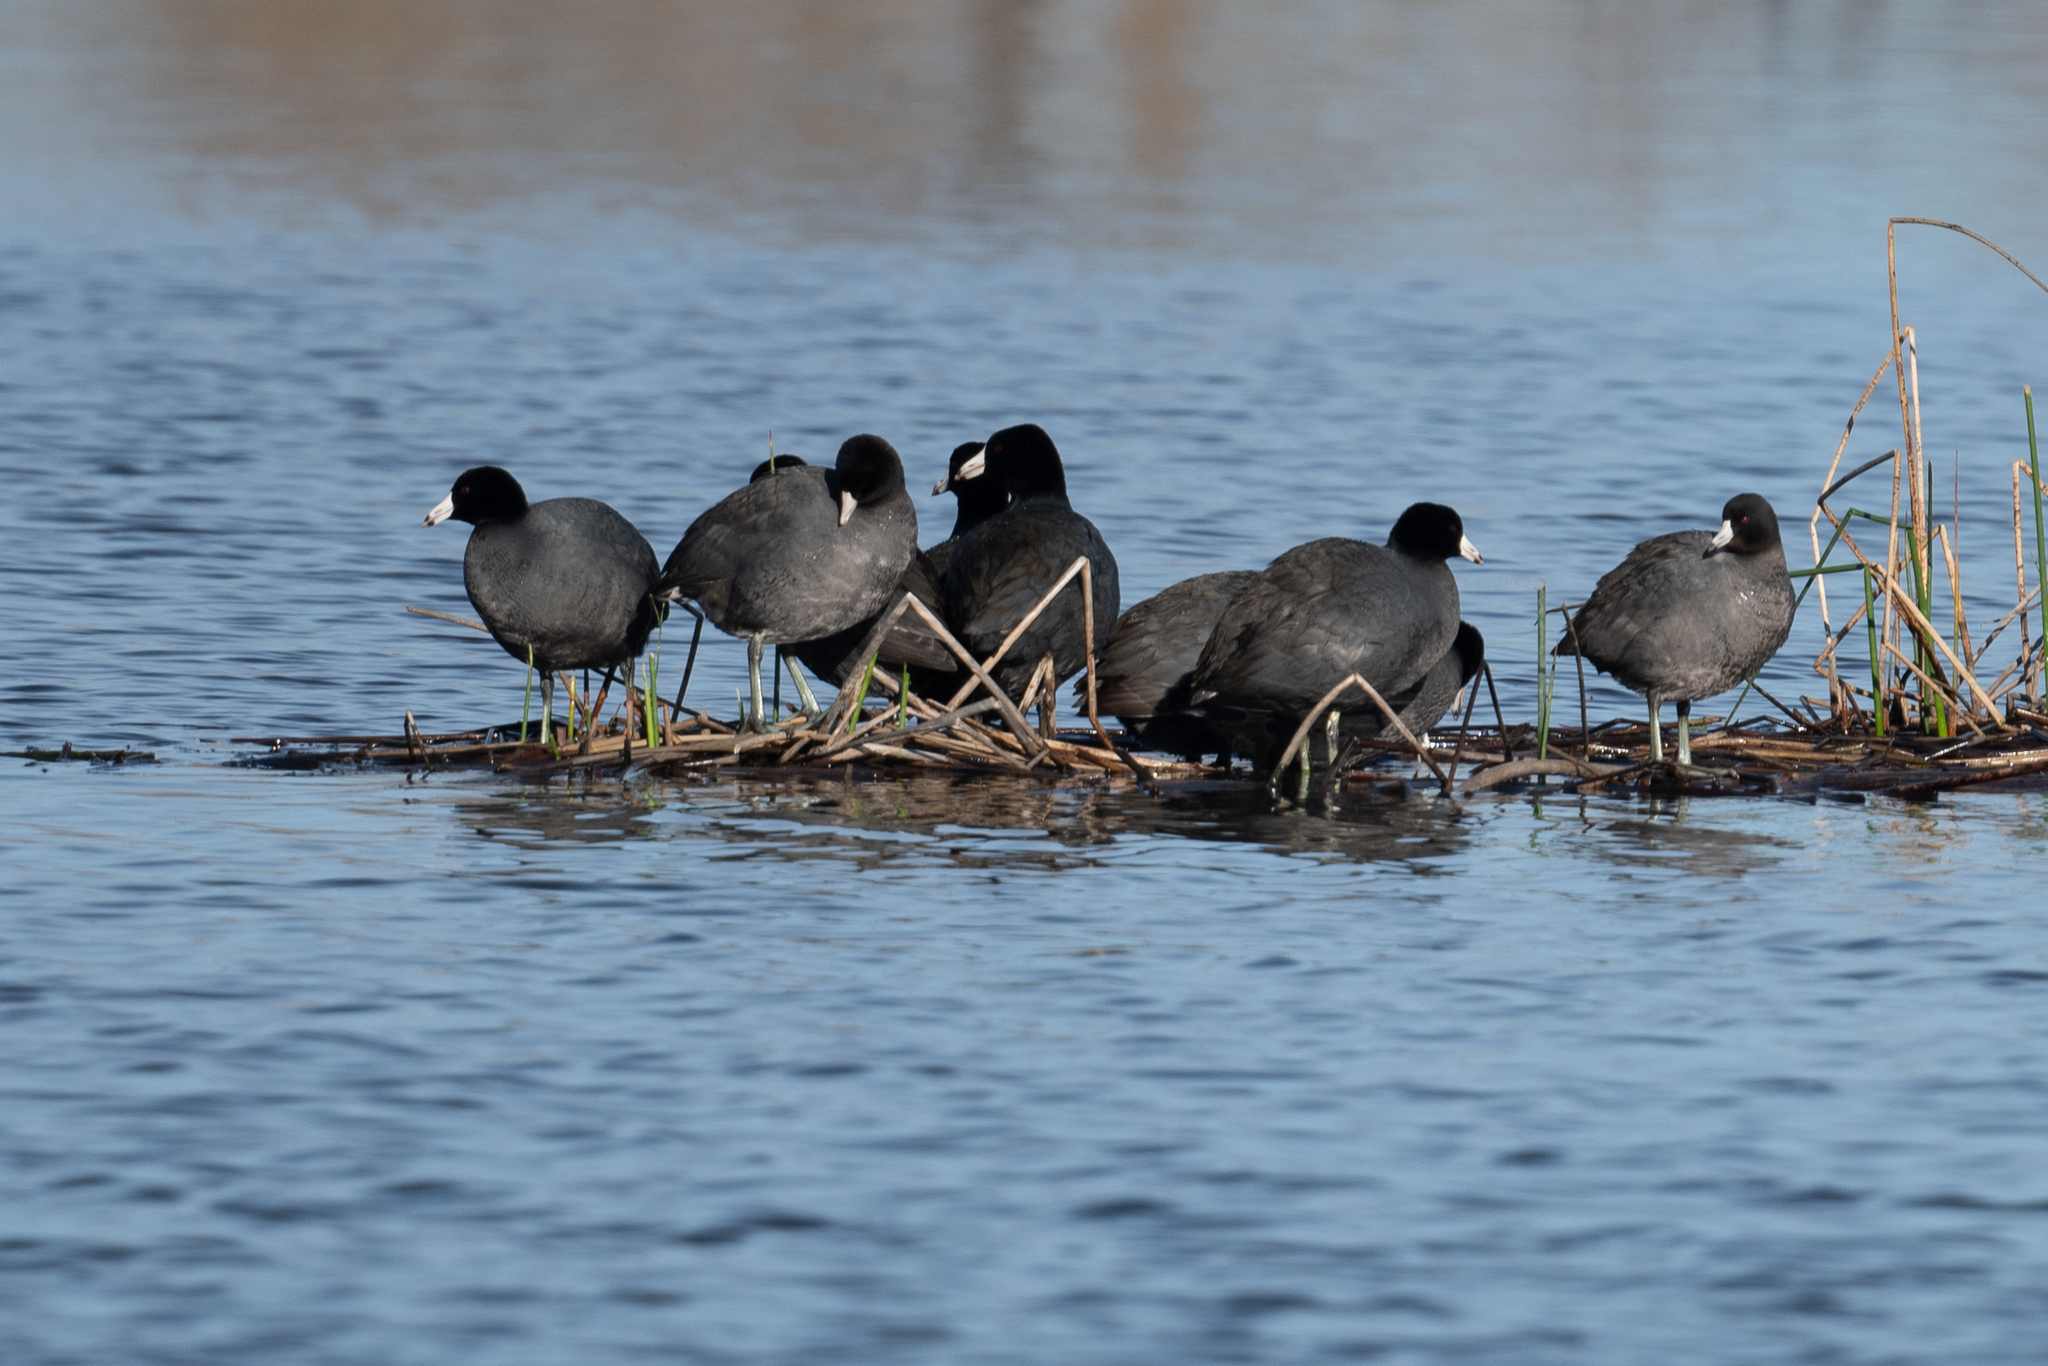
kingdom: Animalia
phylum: Chordata
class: Aves
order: Gruiformes
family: Rallidae
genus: Fulica
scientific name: Fulica americana
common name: American coot
